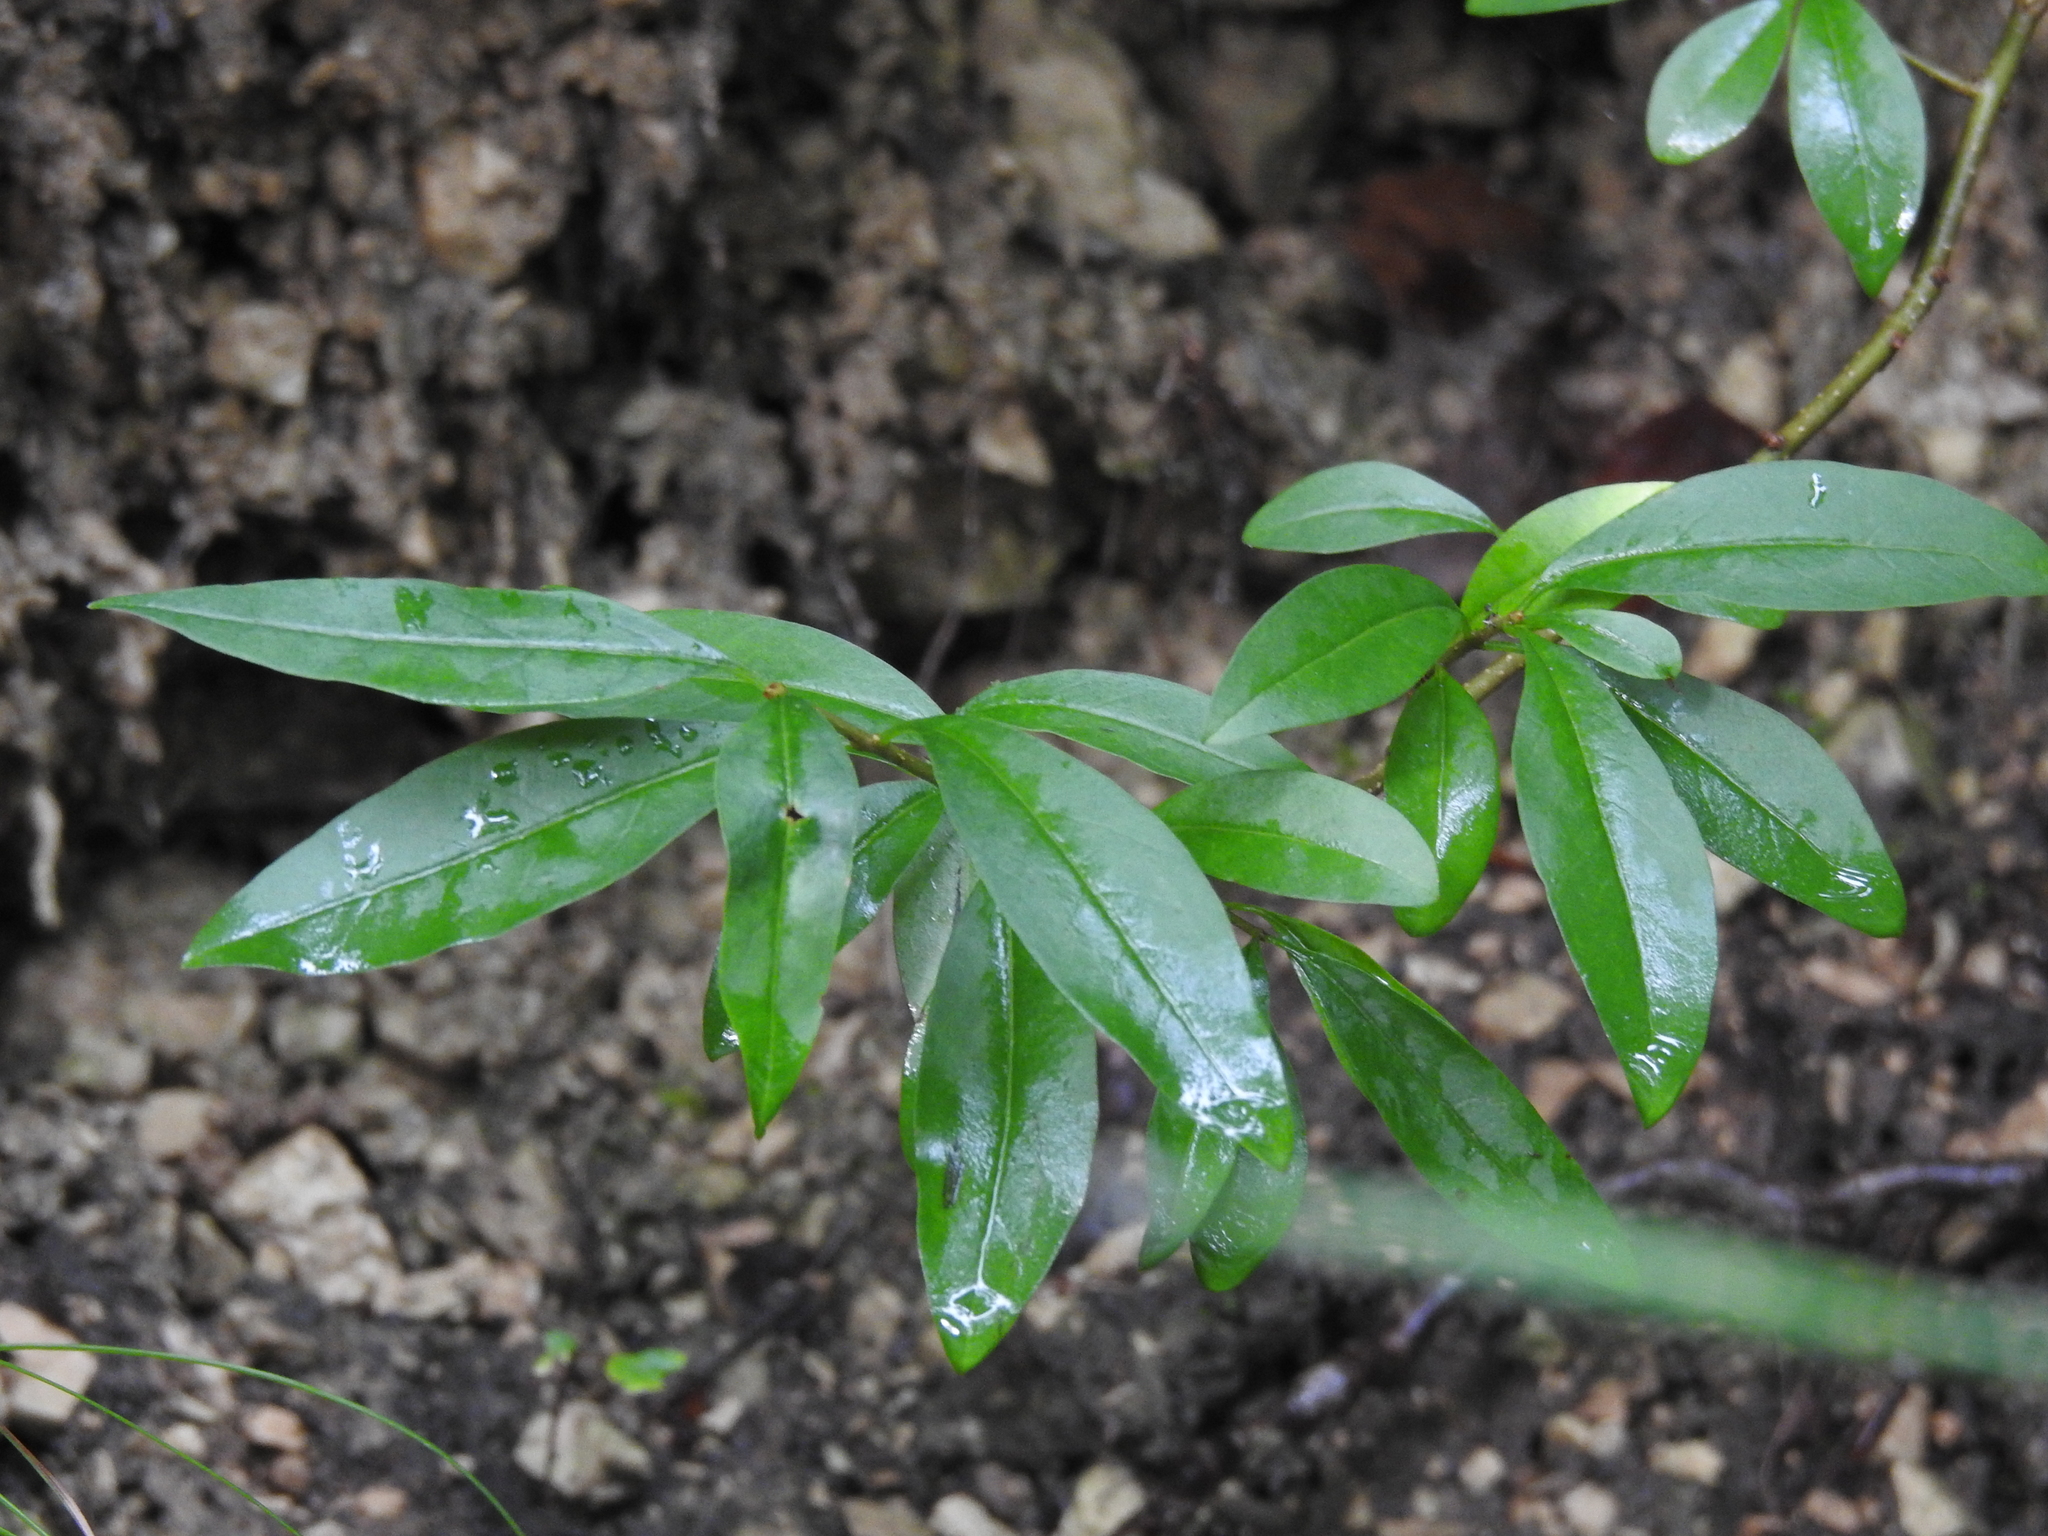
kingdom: Plantae
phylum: Tracheophyta
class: Magnoliopsida
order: Lamiales
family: Oleaceae
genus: Ligustrum
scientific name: Ligustrum vulgare
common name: Wild privet
